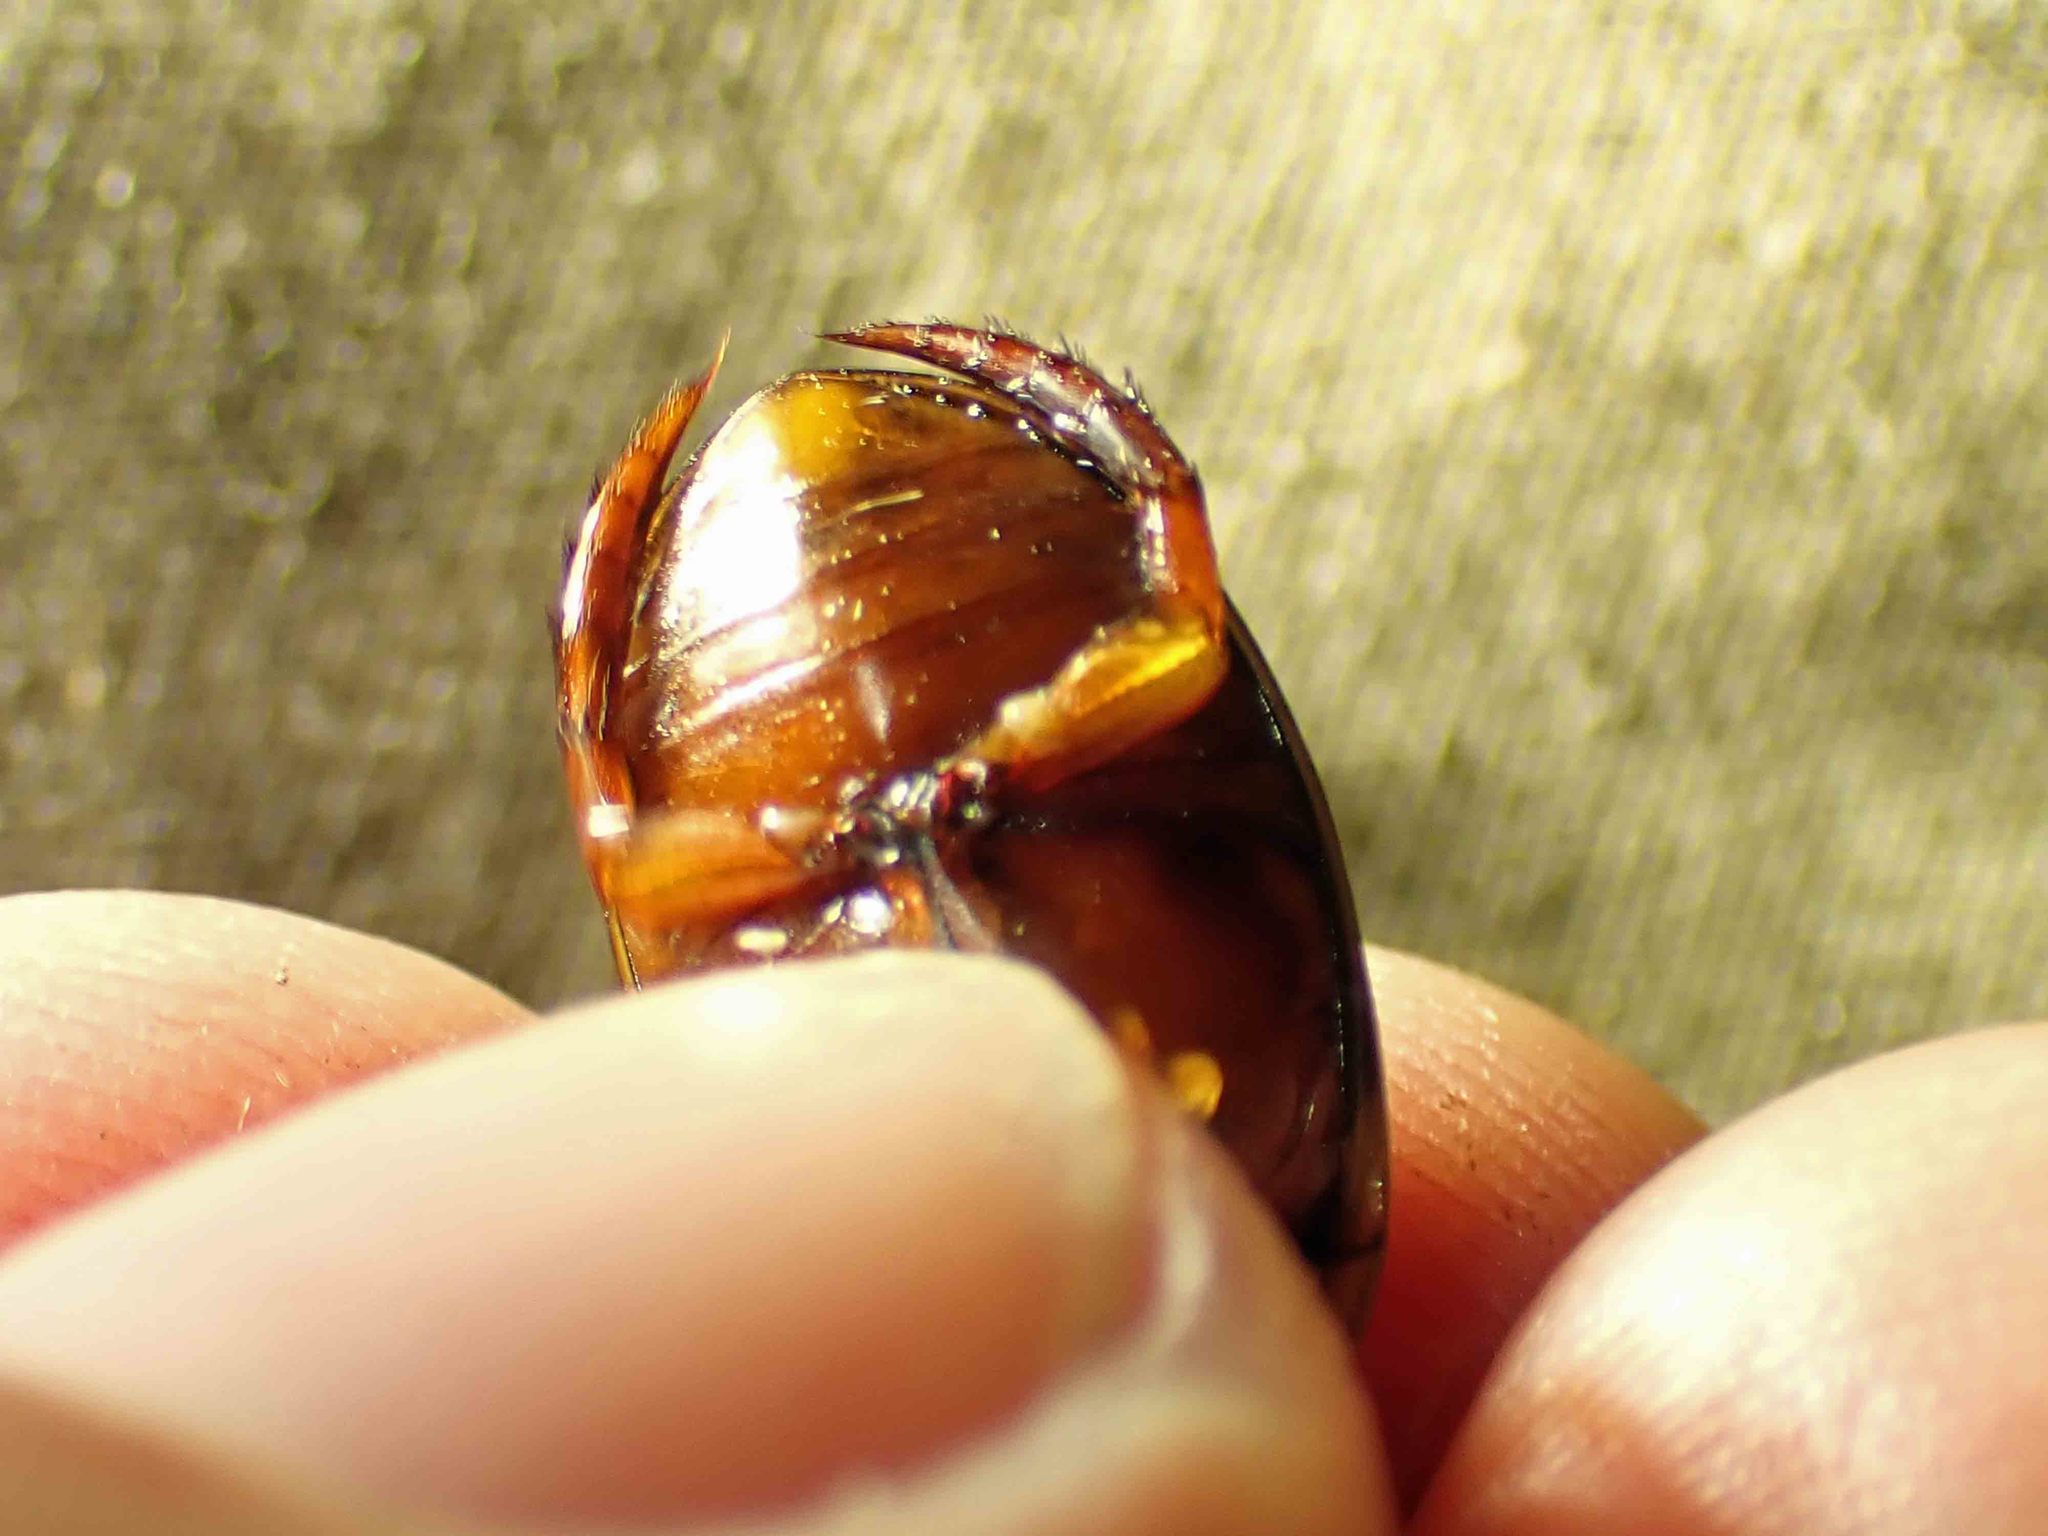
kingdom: Animalia
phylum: Arthropoda
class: Insecta
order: Coleoptera
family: Dytiscidae
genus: Graphoderus
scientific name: Graphoderus fascicollis
